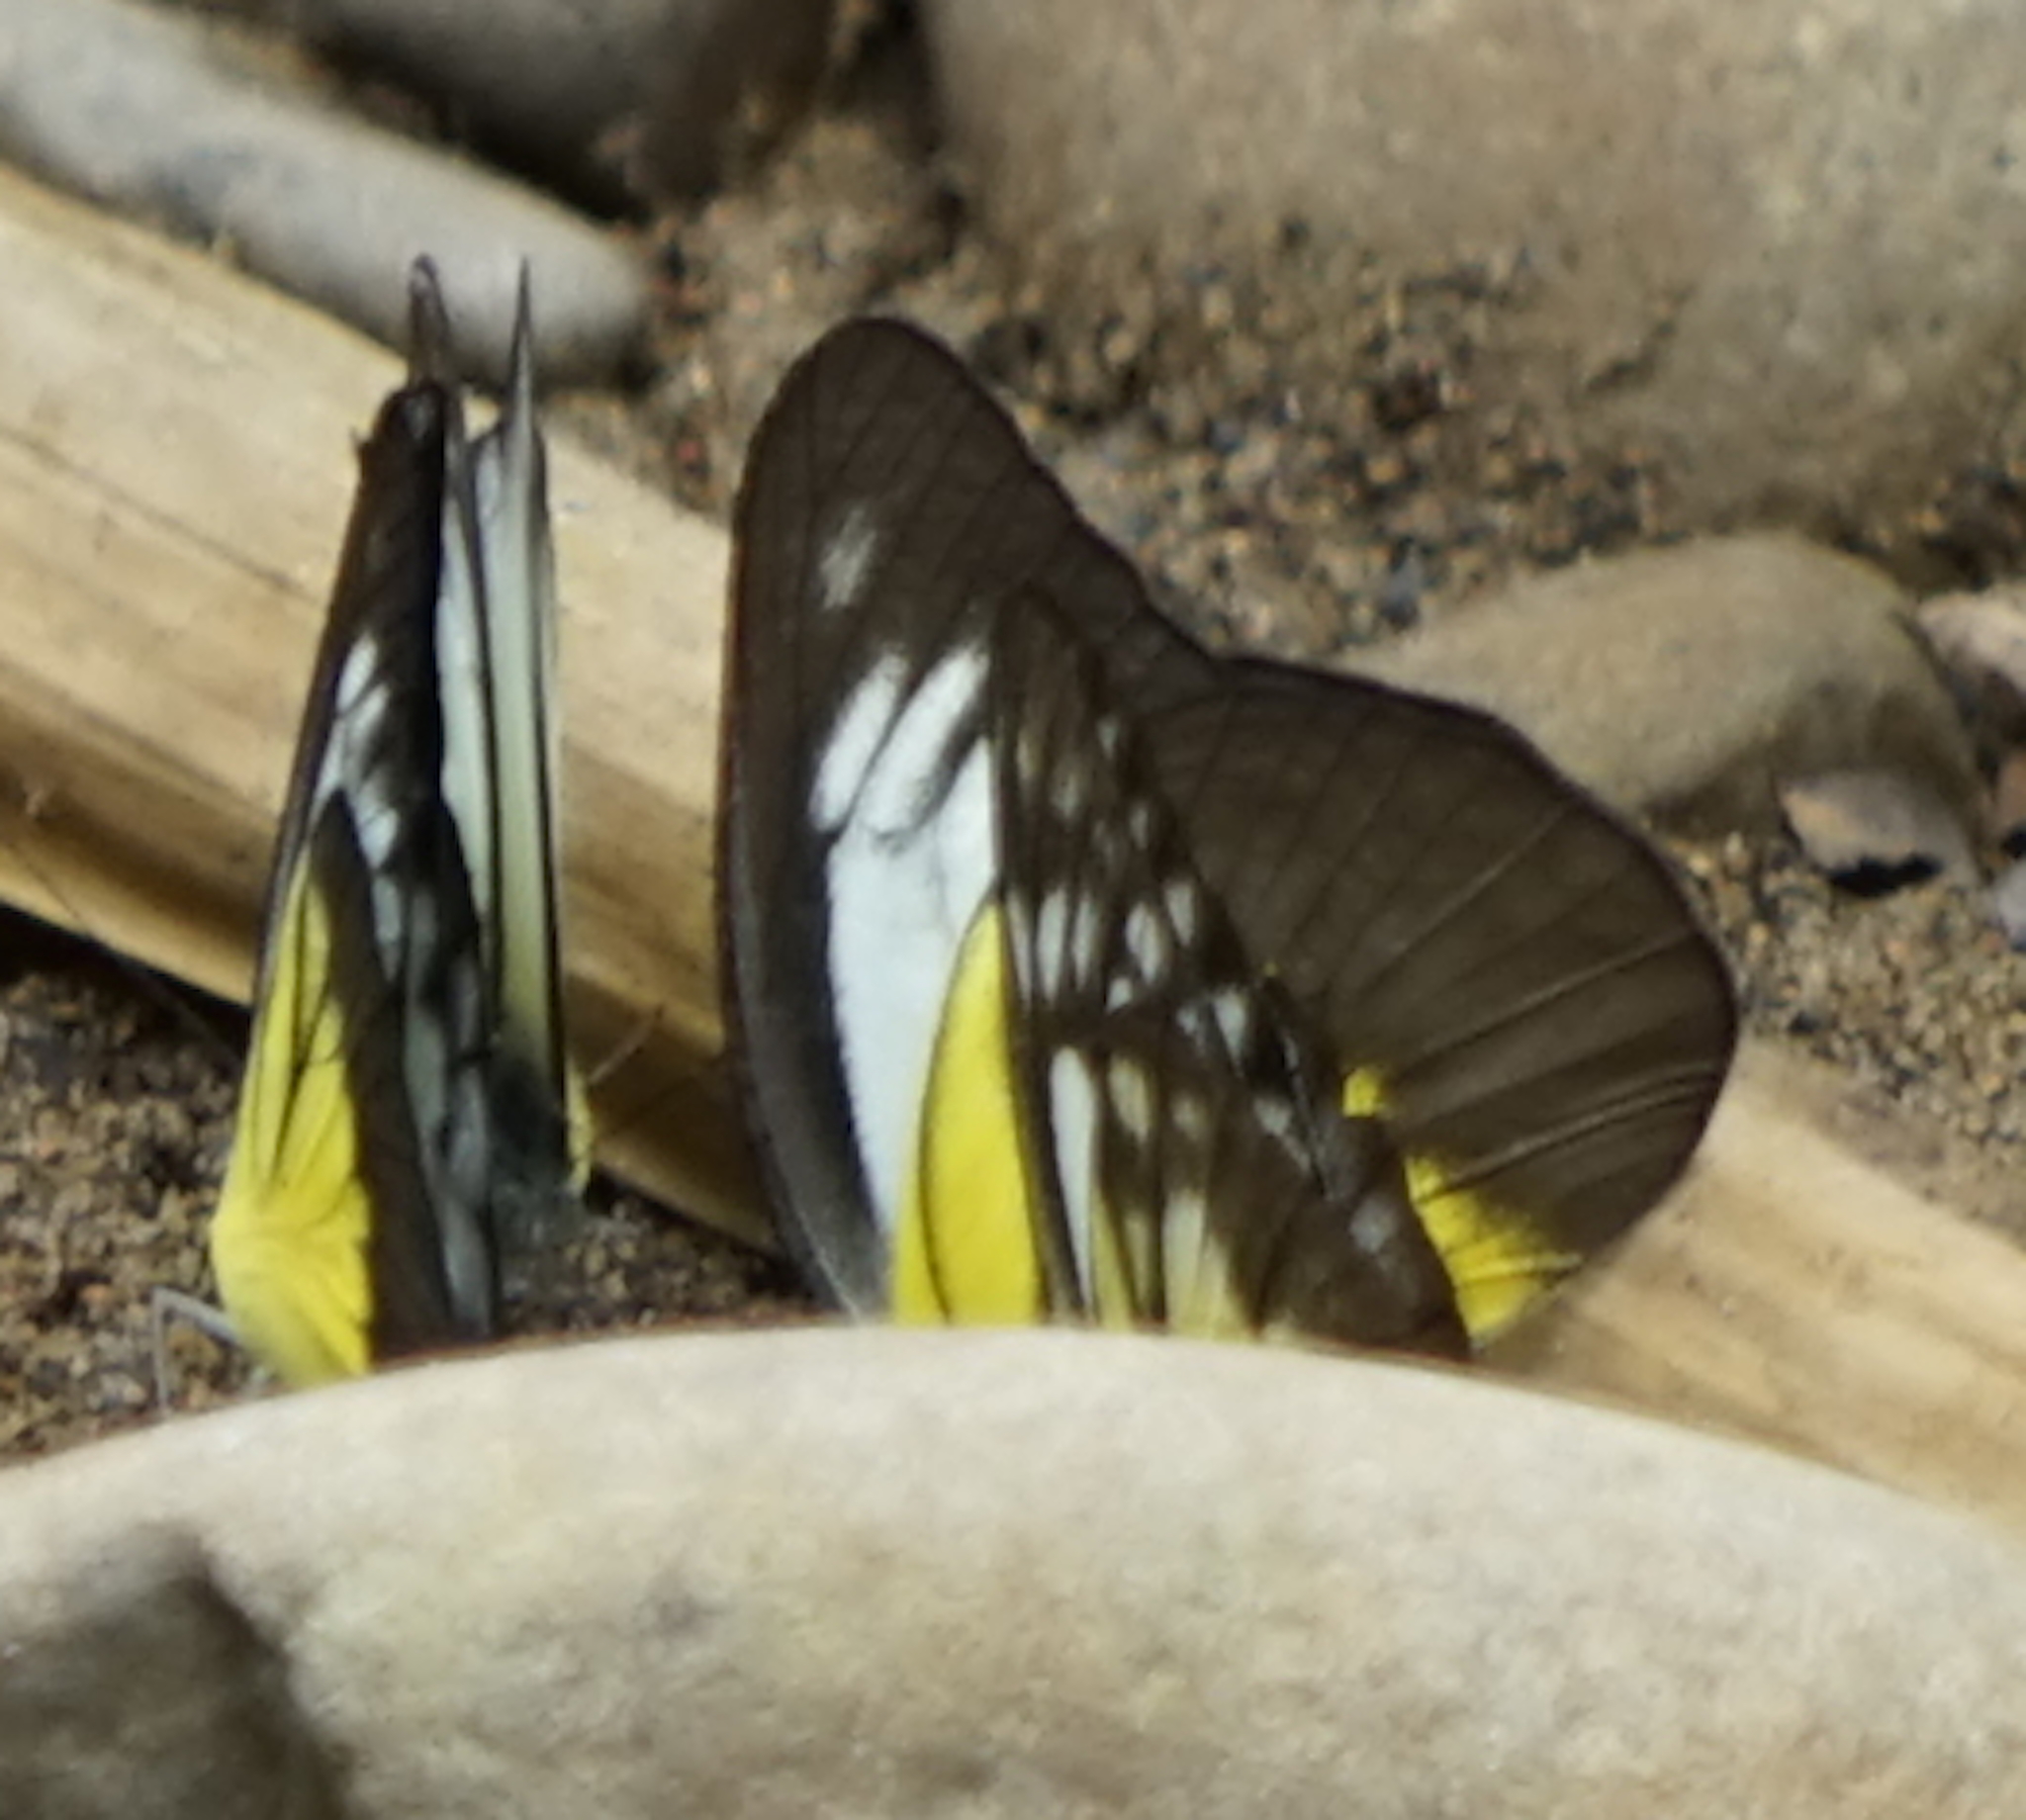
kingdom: Animalia
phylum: Arthropoda
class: Insecta
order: Lepidoptera
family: Pieridae
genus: Cepora
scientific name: Cepora iudith
